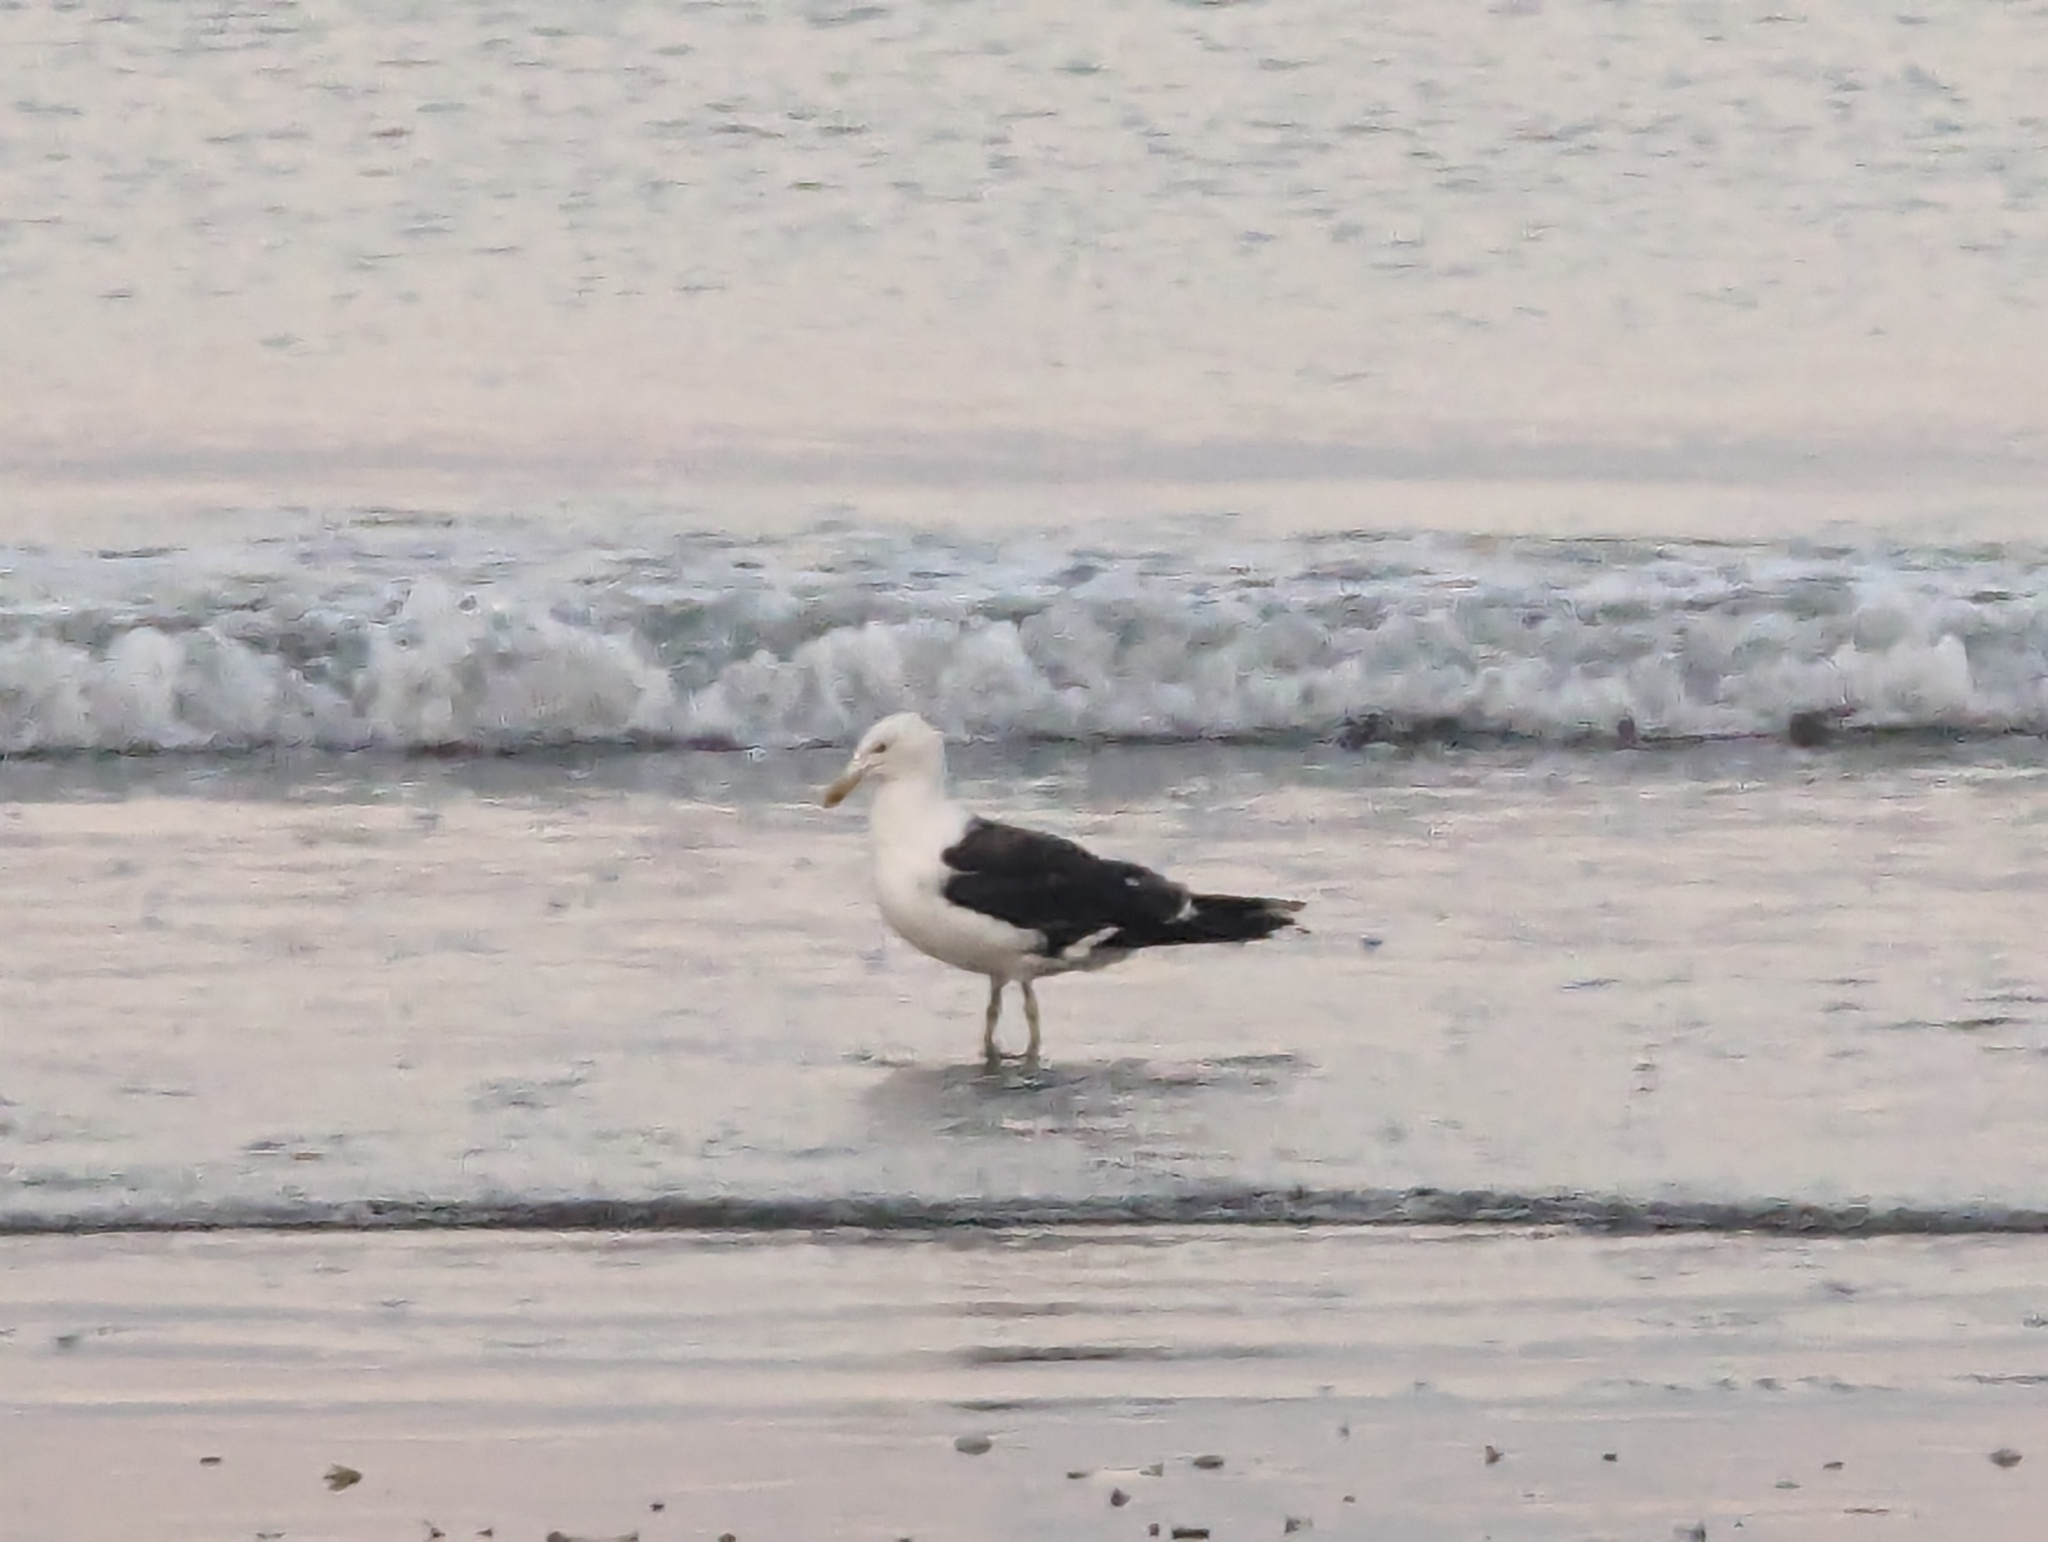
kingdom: Animalia
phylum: Chordata
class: Aves
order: Charadriiformes
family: Laridae
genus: Larus
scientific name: Larus dominicanus
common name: Kelp gull
